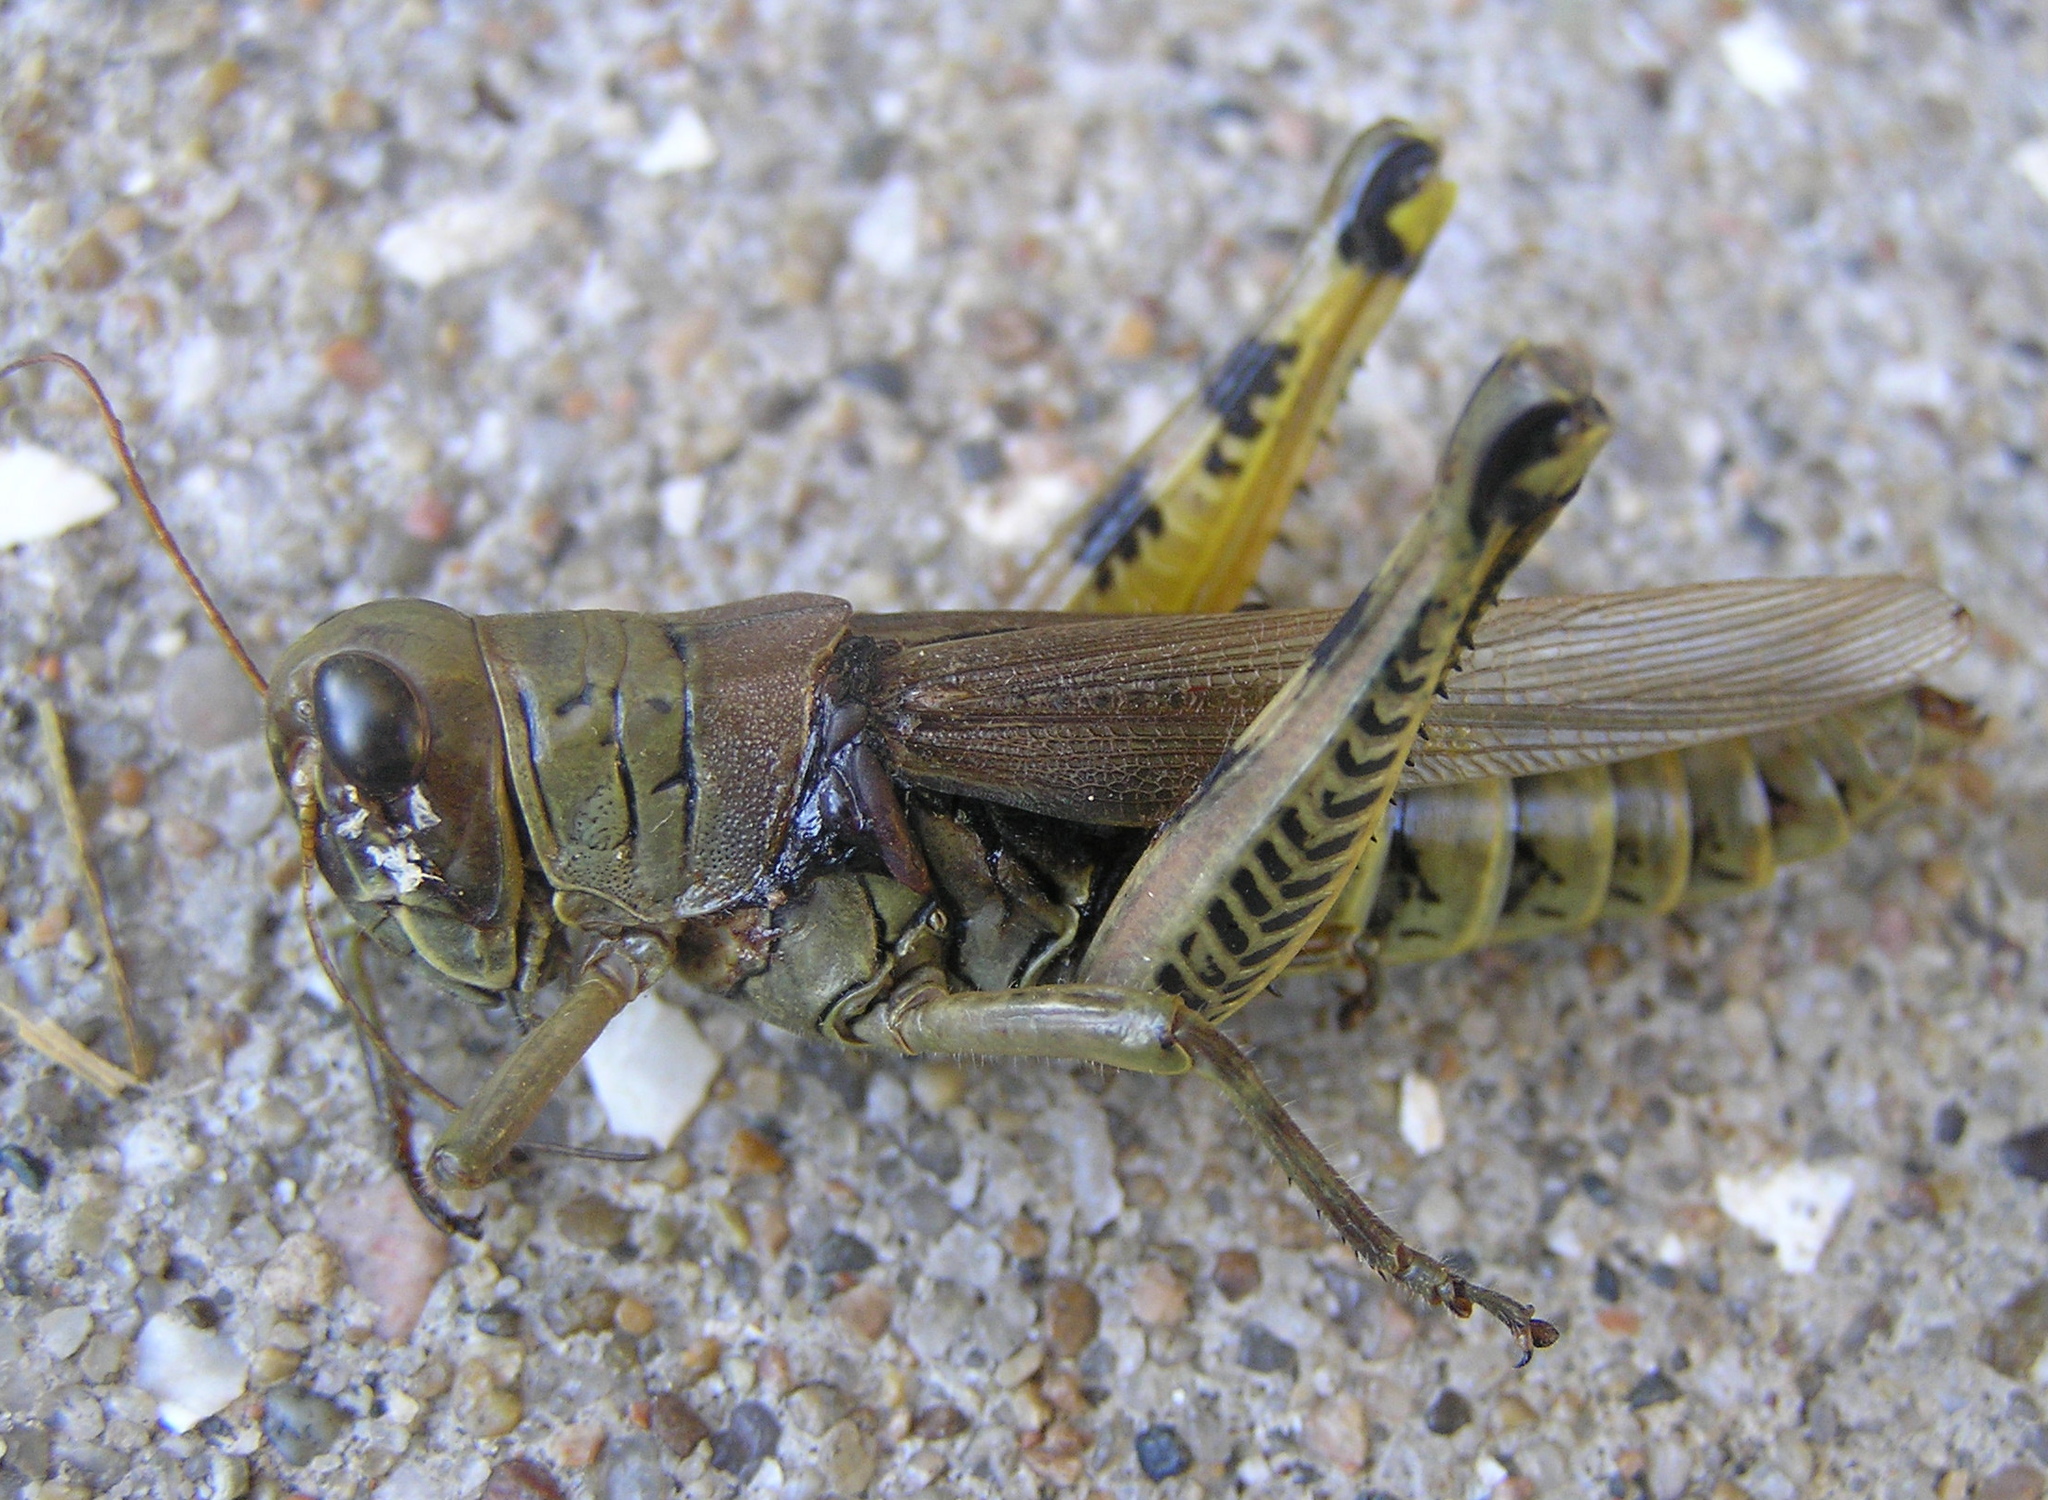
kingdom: Animalia
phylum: Arthropoda
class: Insecta
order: Orthoptera
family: Acrididae
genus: Melanoplus
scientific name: Melanoplus differentialis
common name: Differential grasshopper
